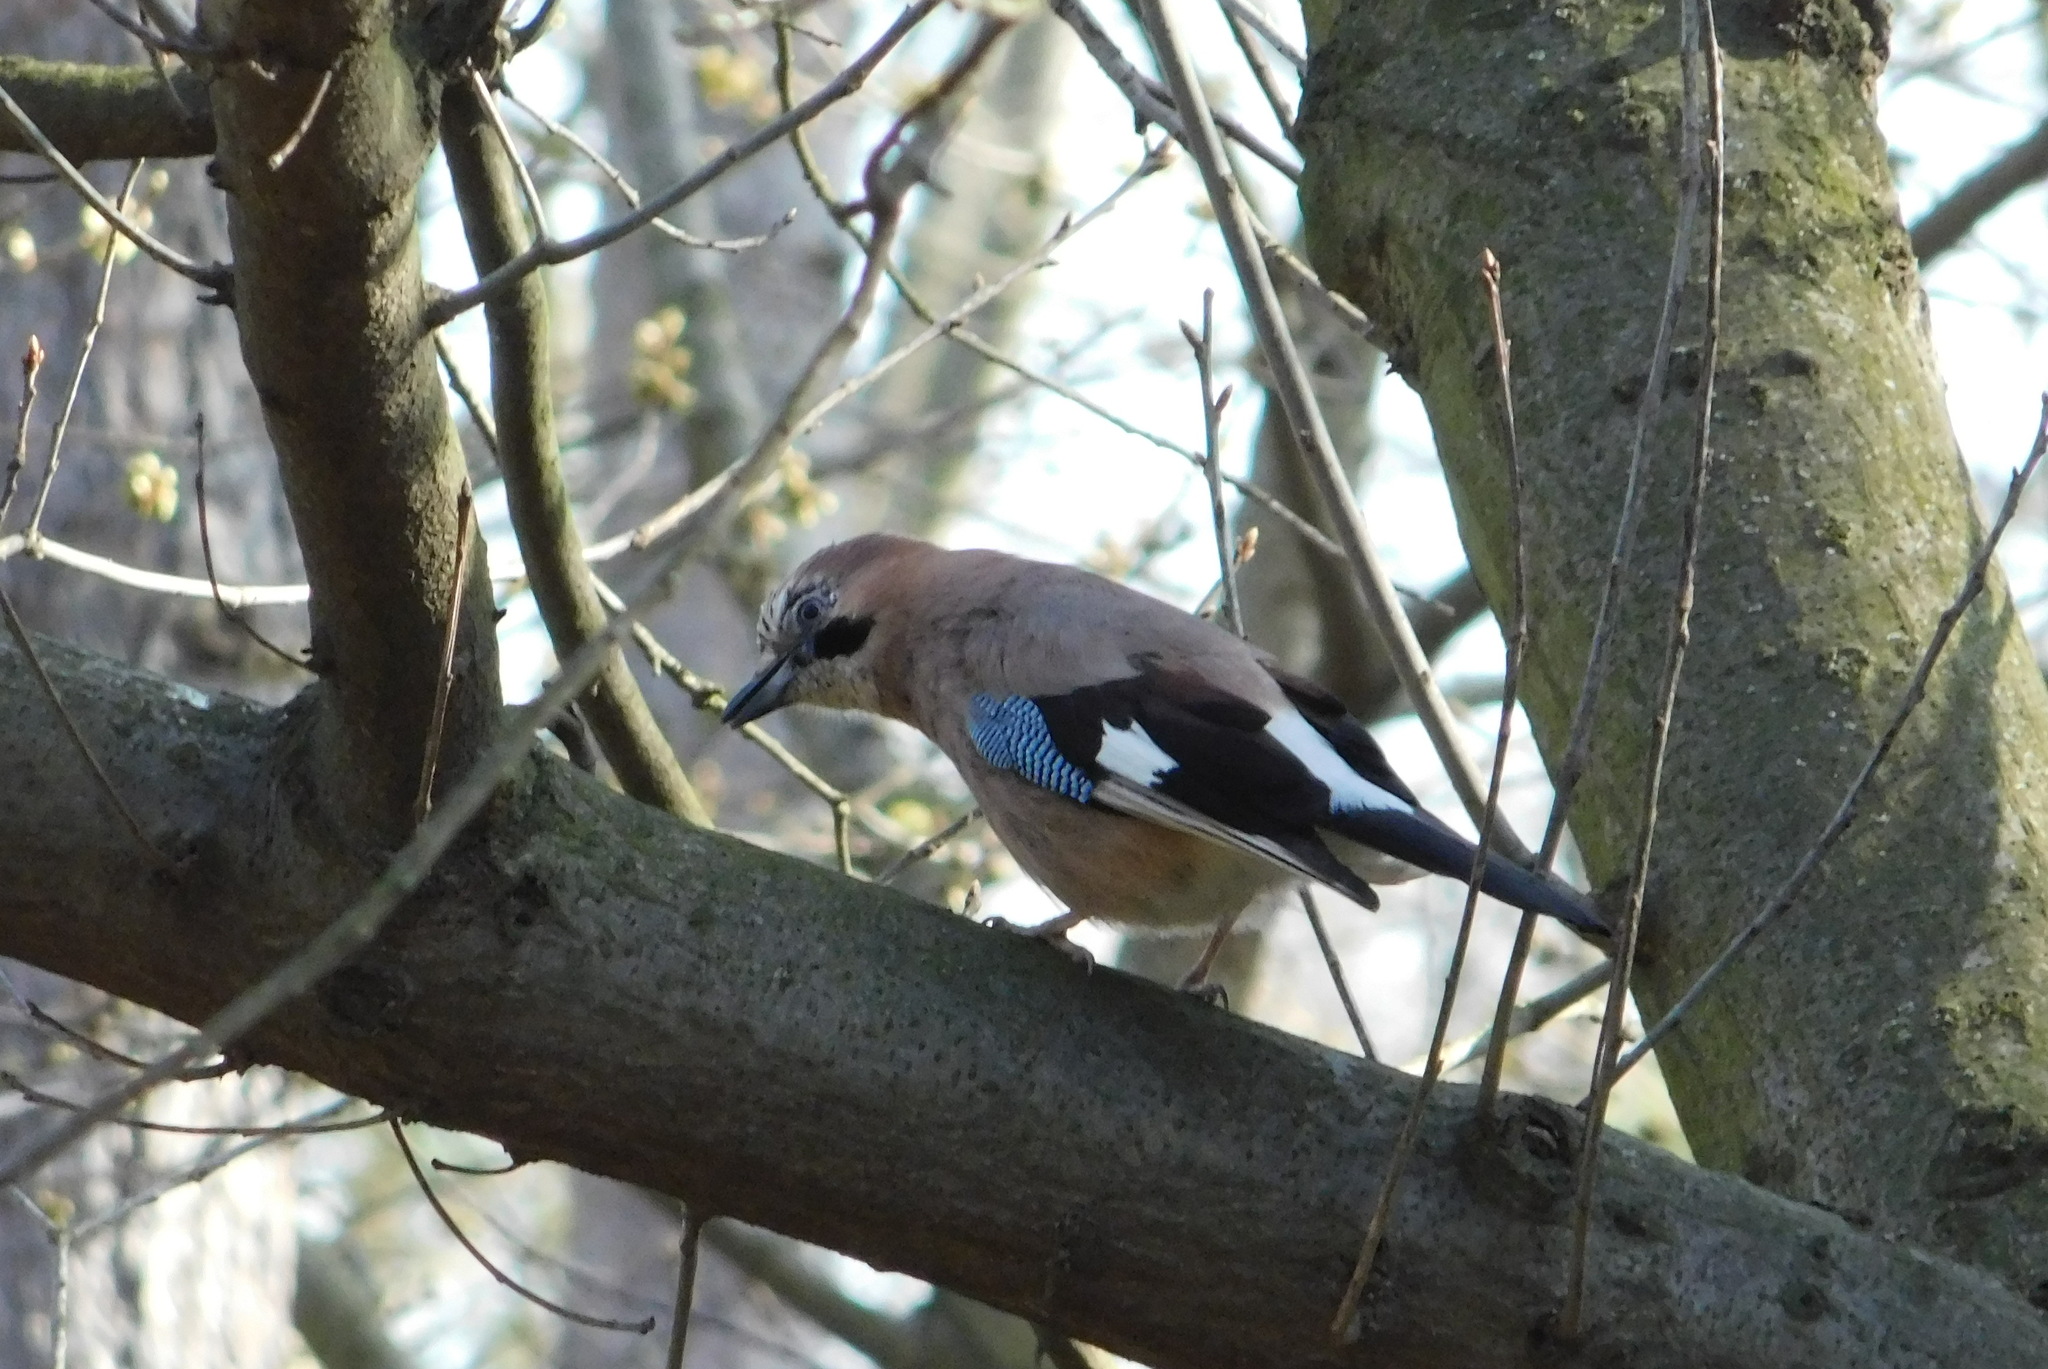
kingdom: Animalia
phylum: Chordata
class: Aves
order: Passeriformes
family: Corvidae
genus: Garrulus
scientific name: Garrulus glandarius
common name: Eurasian jay
